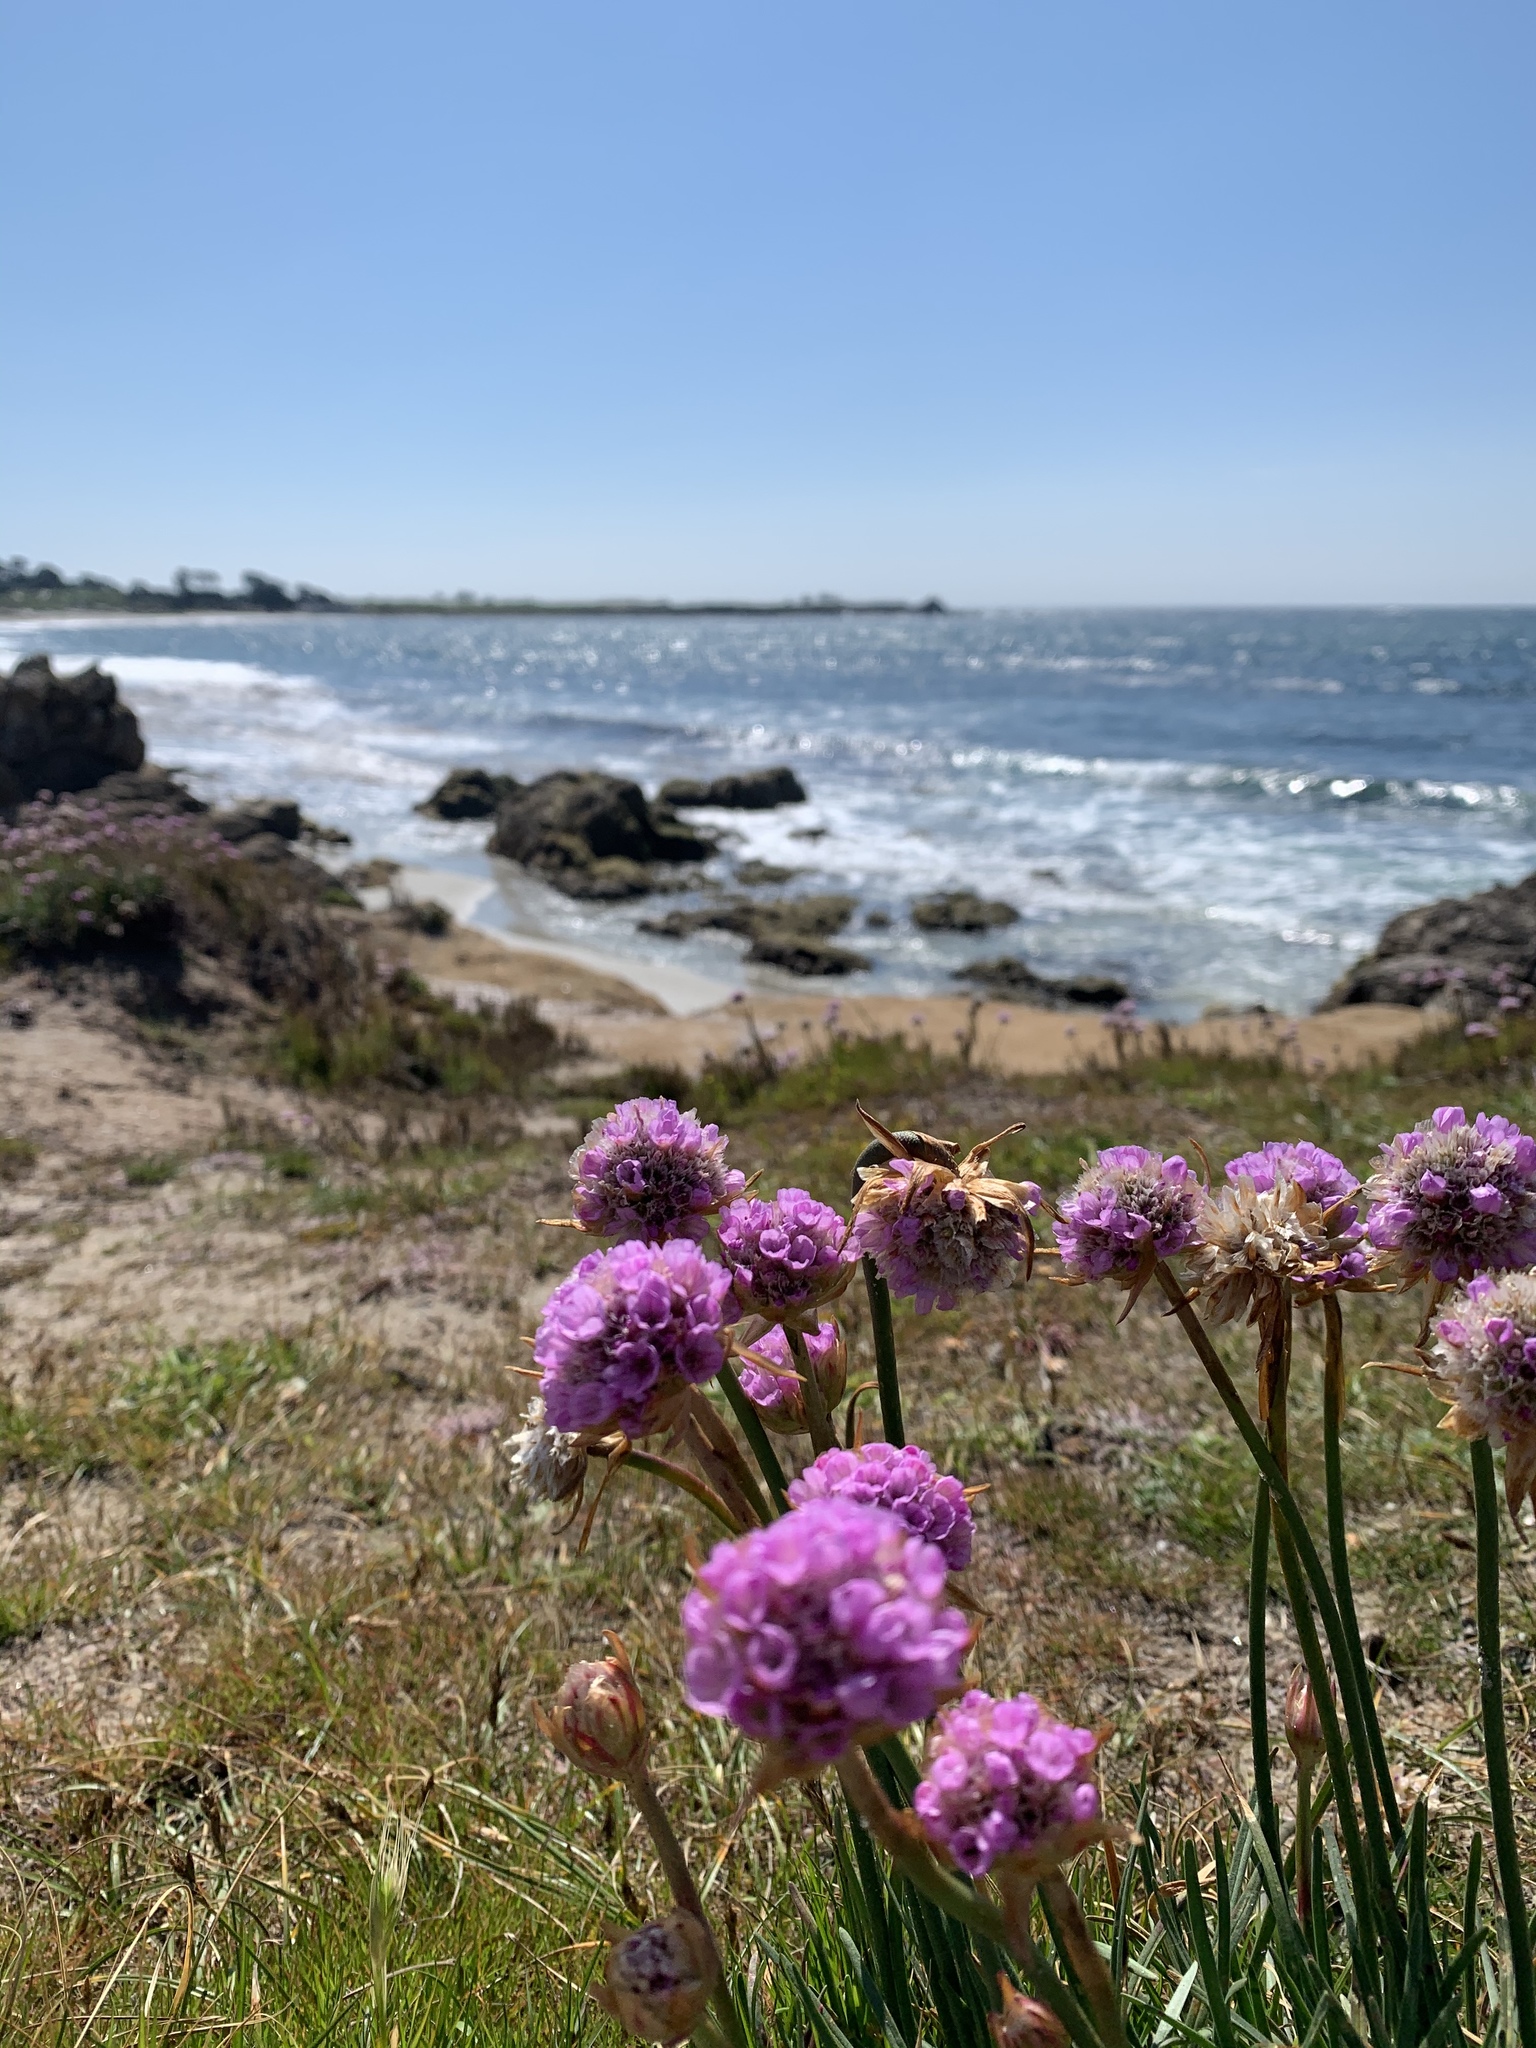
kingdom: Plantae
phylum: Tracheophyta
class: Magnoliopsida
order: Caryophyllales
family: Plumbaginaceae
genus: Armeria
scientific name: Armeria maritima
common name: Thrift
